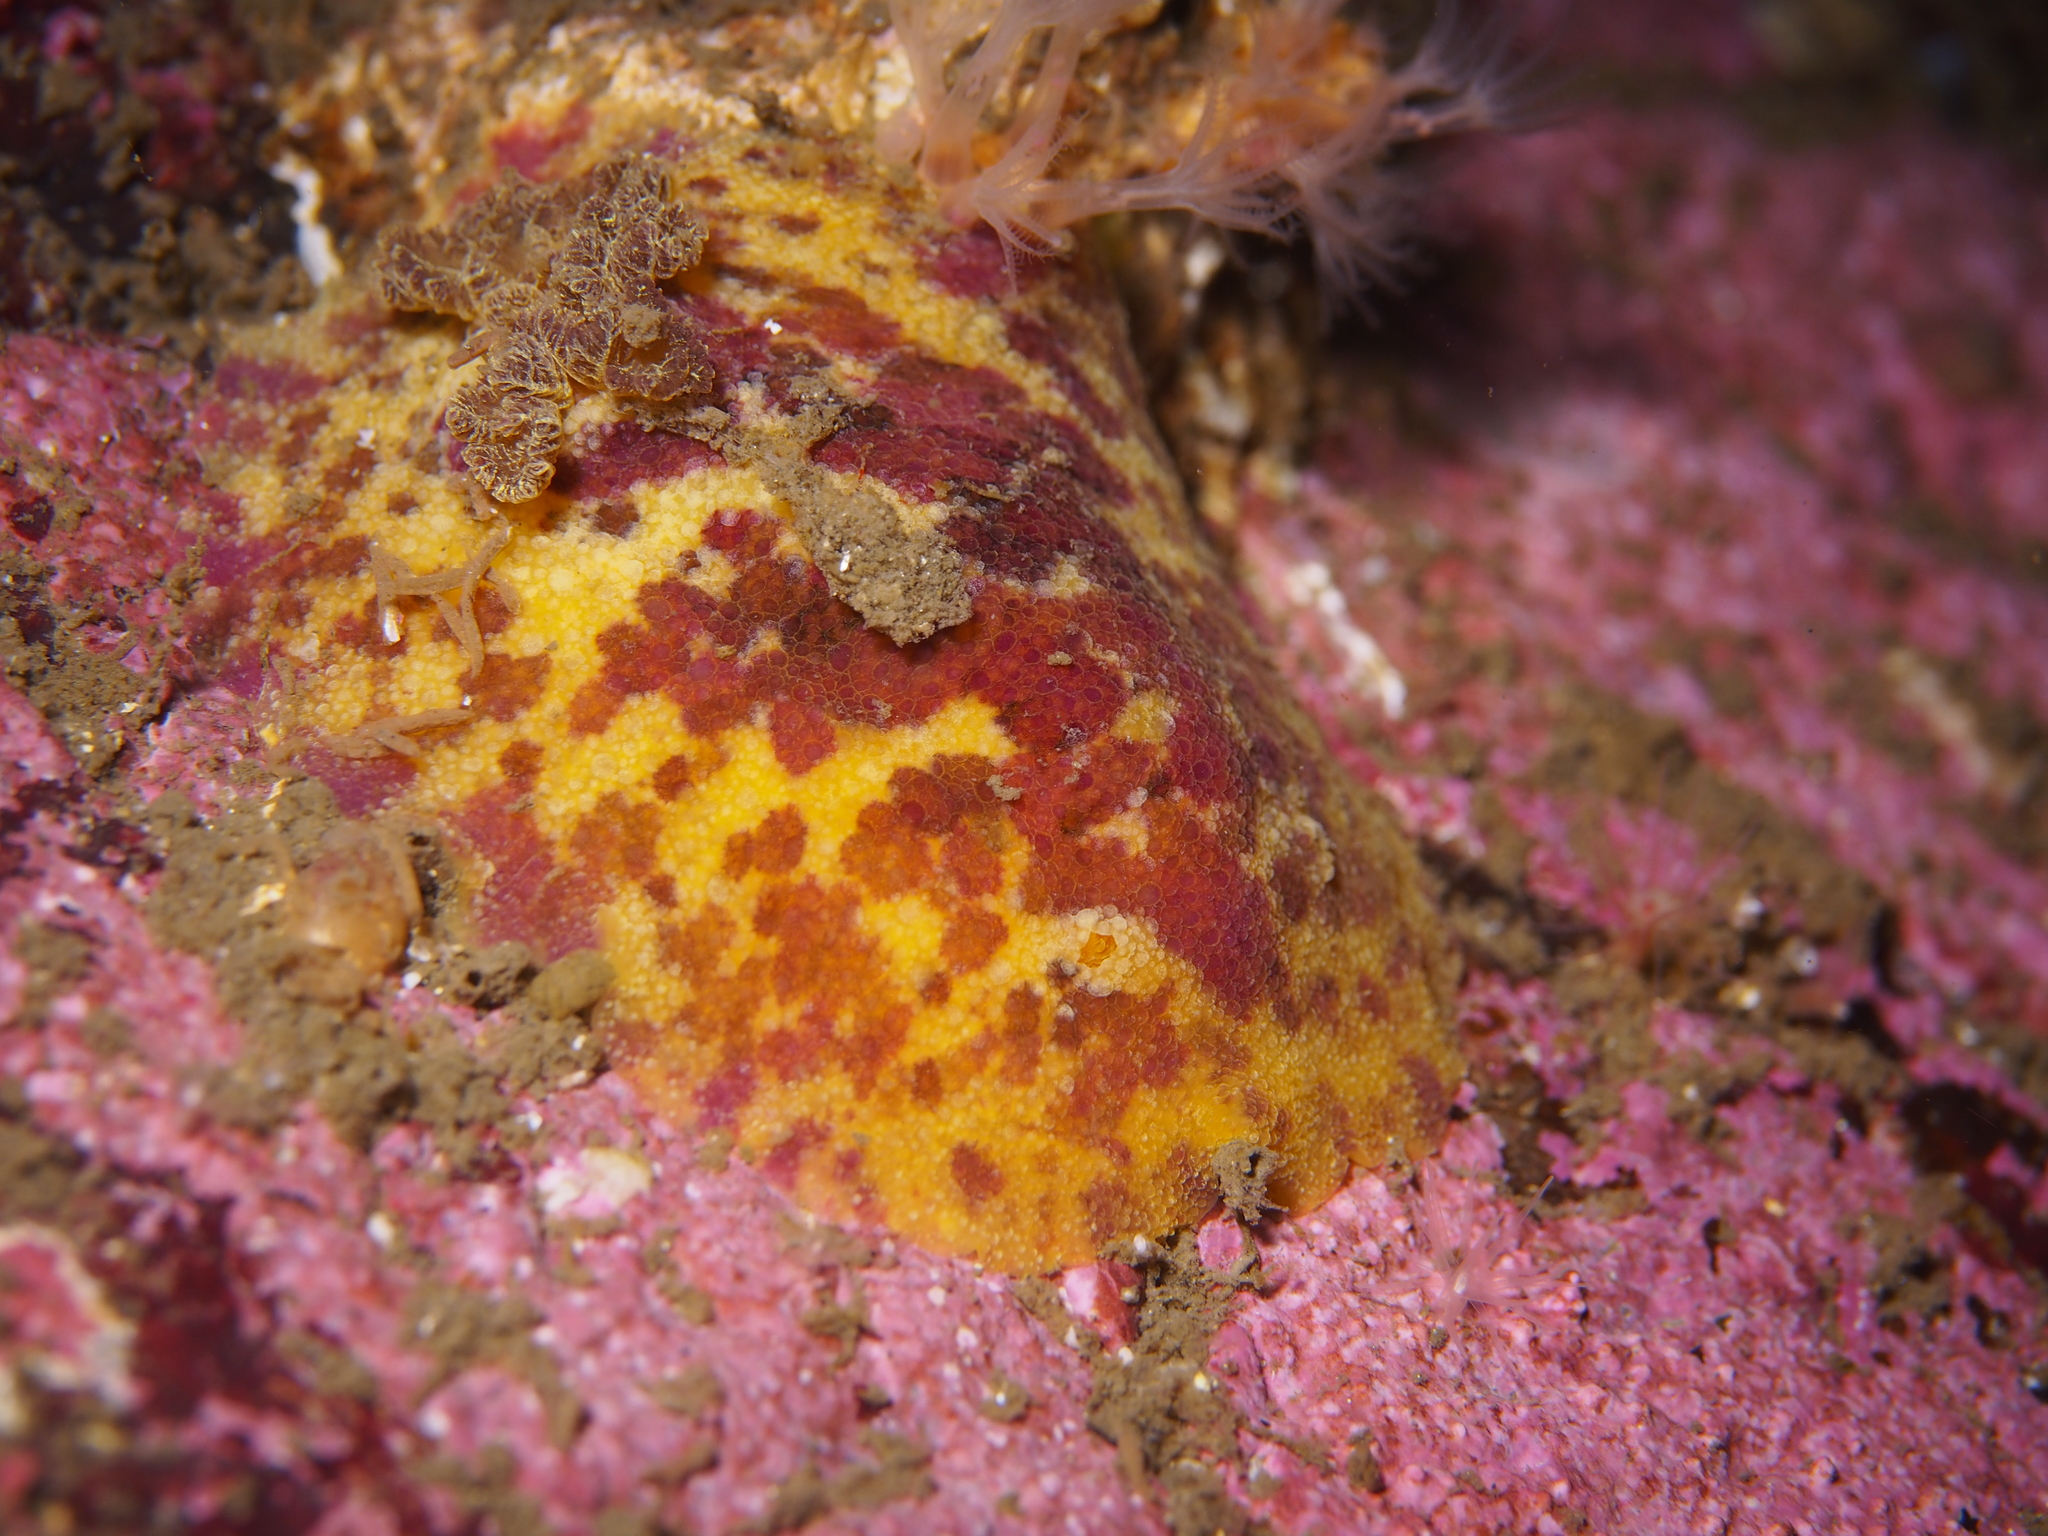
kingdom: Animalia
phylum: Mollusca
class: Gastropoda
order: Nudibranchia
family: Dorididae
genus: Doris
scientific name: Doris pseudoargus
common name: Sea lemon
